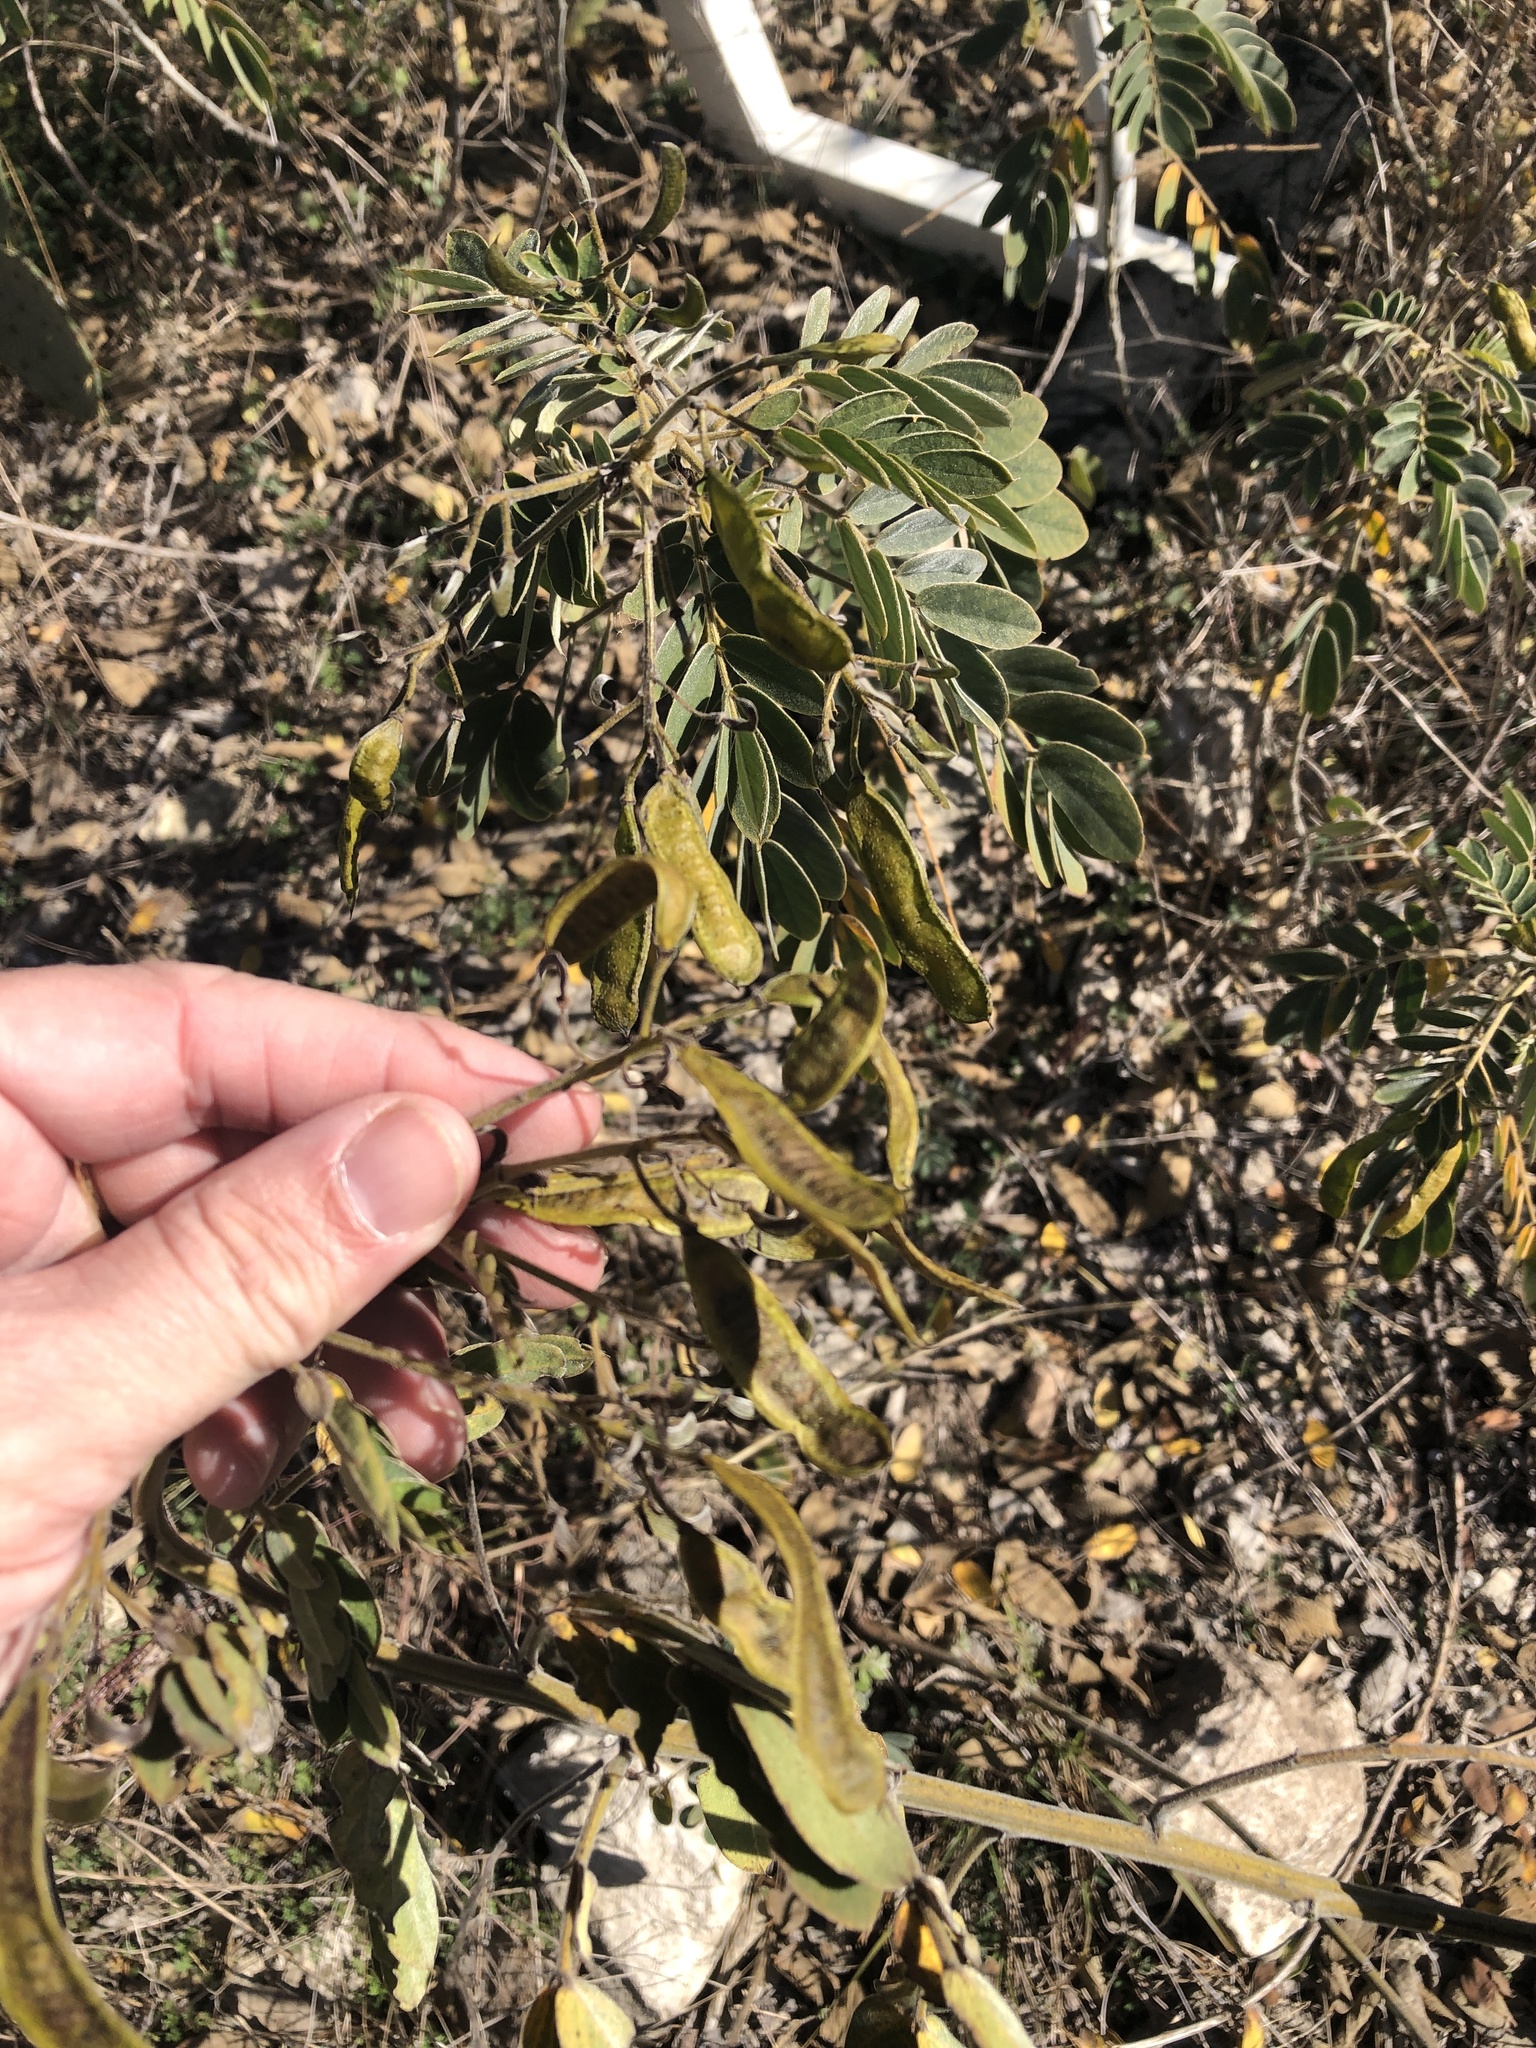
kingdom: Plantae
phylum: Tracheophyta
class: Magnoliopsida
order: Fabales
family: Fabaceae
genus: Senna
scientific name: Senna lindheimeriana
